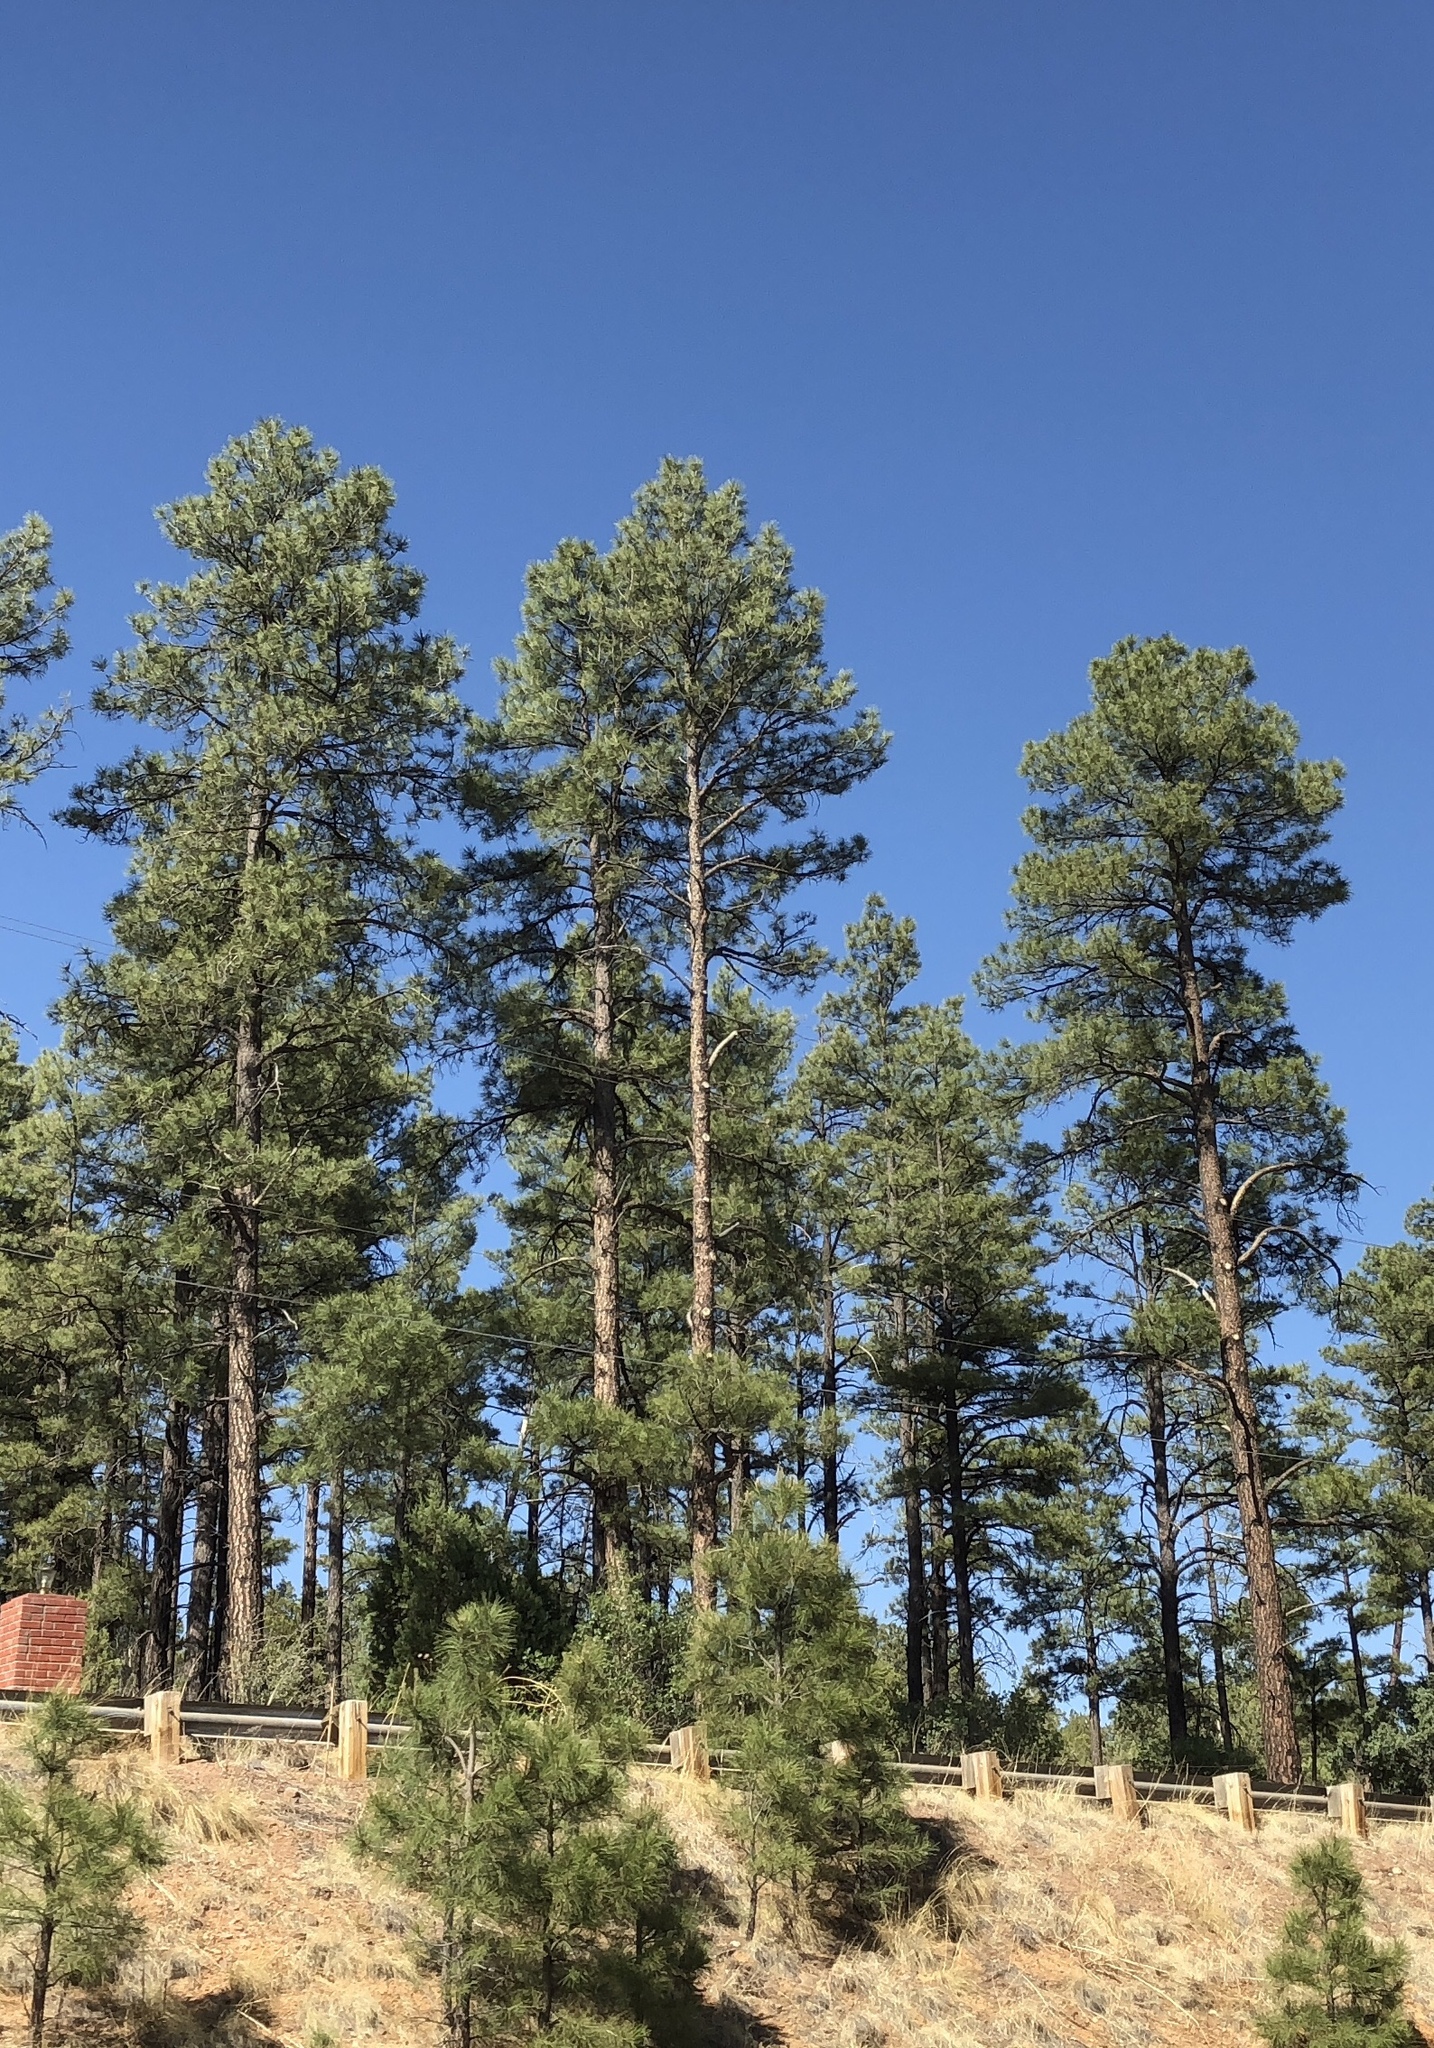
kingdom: Plantae
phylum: Tracheophyta
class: Pinopsida
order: Pinales
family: Pinaceae
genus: Pinus
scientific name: Pinus ponderosa
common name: Western yellow-pine
